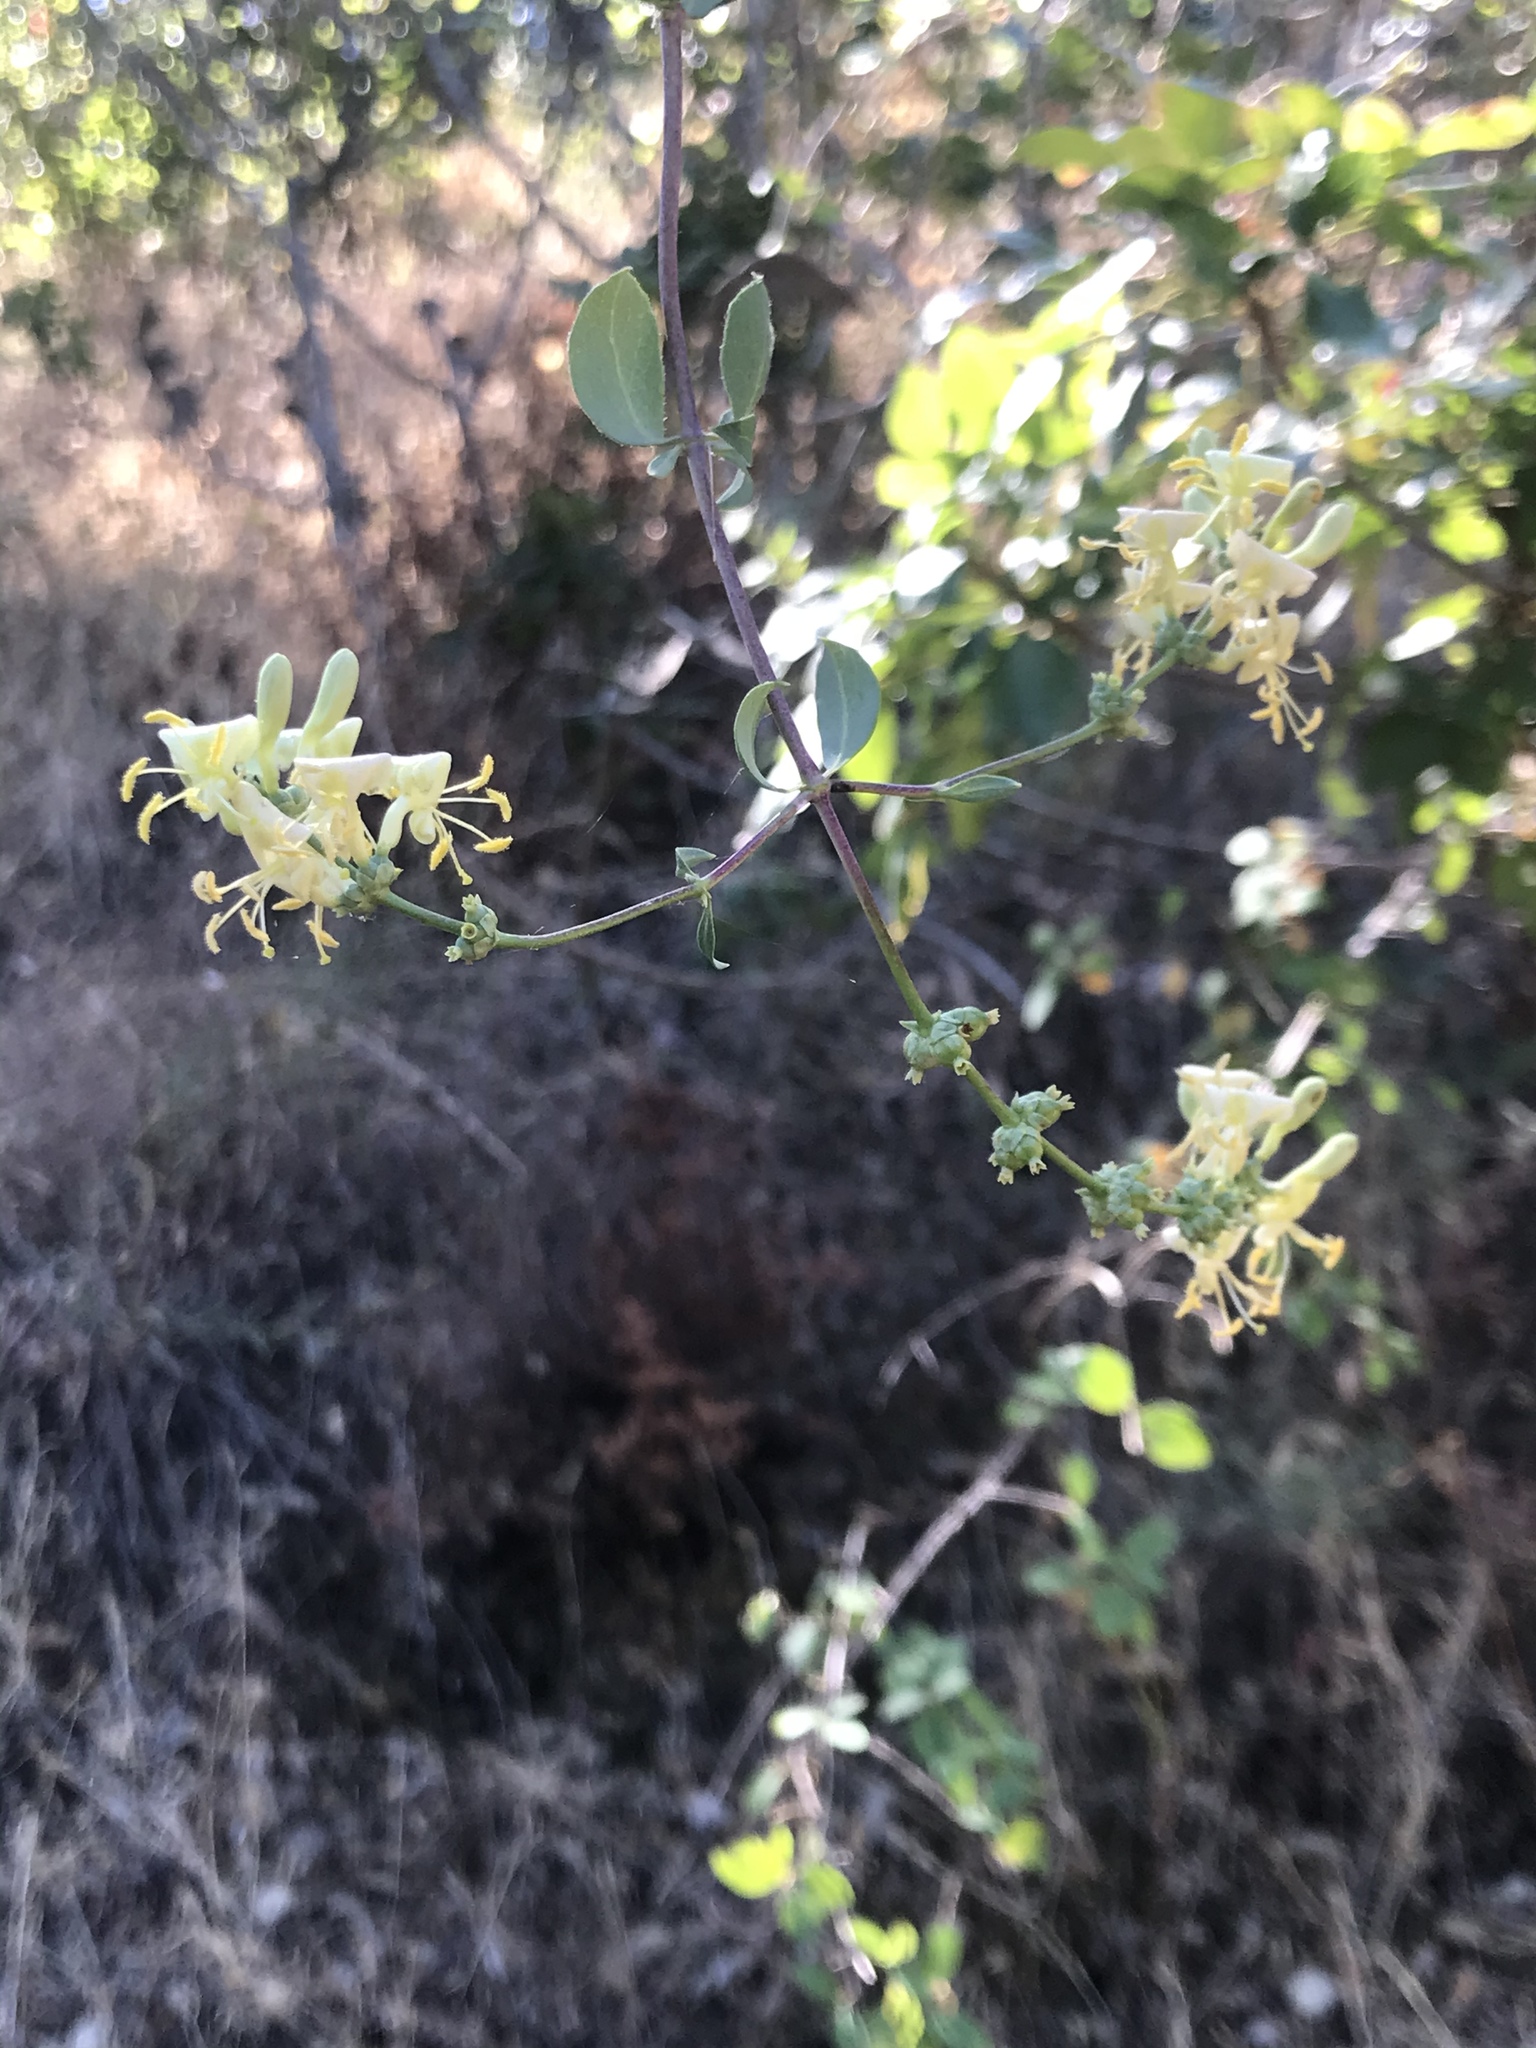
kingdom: Plantae
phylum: Tracheophyta
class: Magnoliopsida
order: Dipsacales
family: Caprifoliaceae
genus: Lonicera
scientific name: Lonicera subspicata
